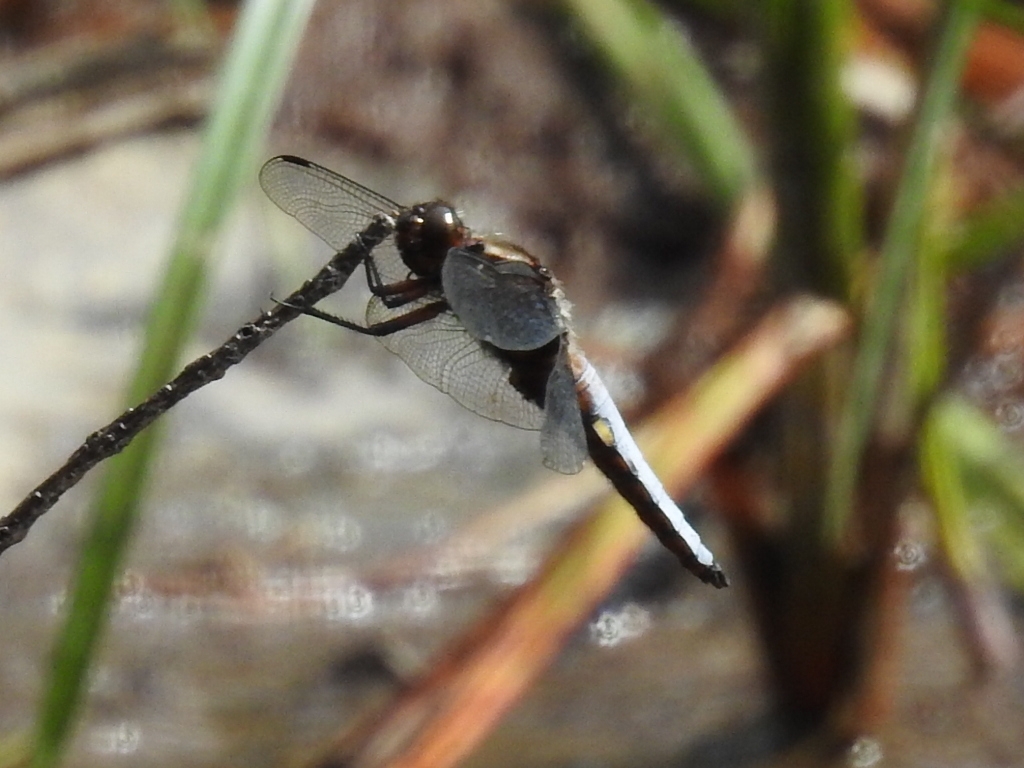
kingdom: Animalia
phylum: Arthropoda
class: Insecta
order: Odonata
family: Libellulidae
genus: Libellula
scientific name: Libellula depressa
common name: Broad-bodied chaser
